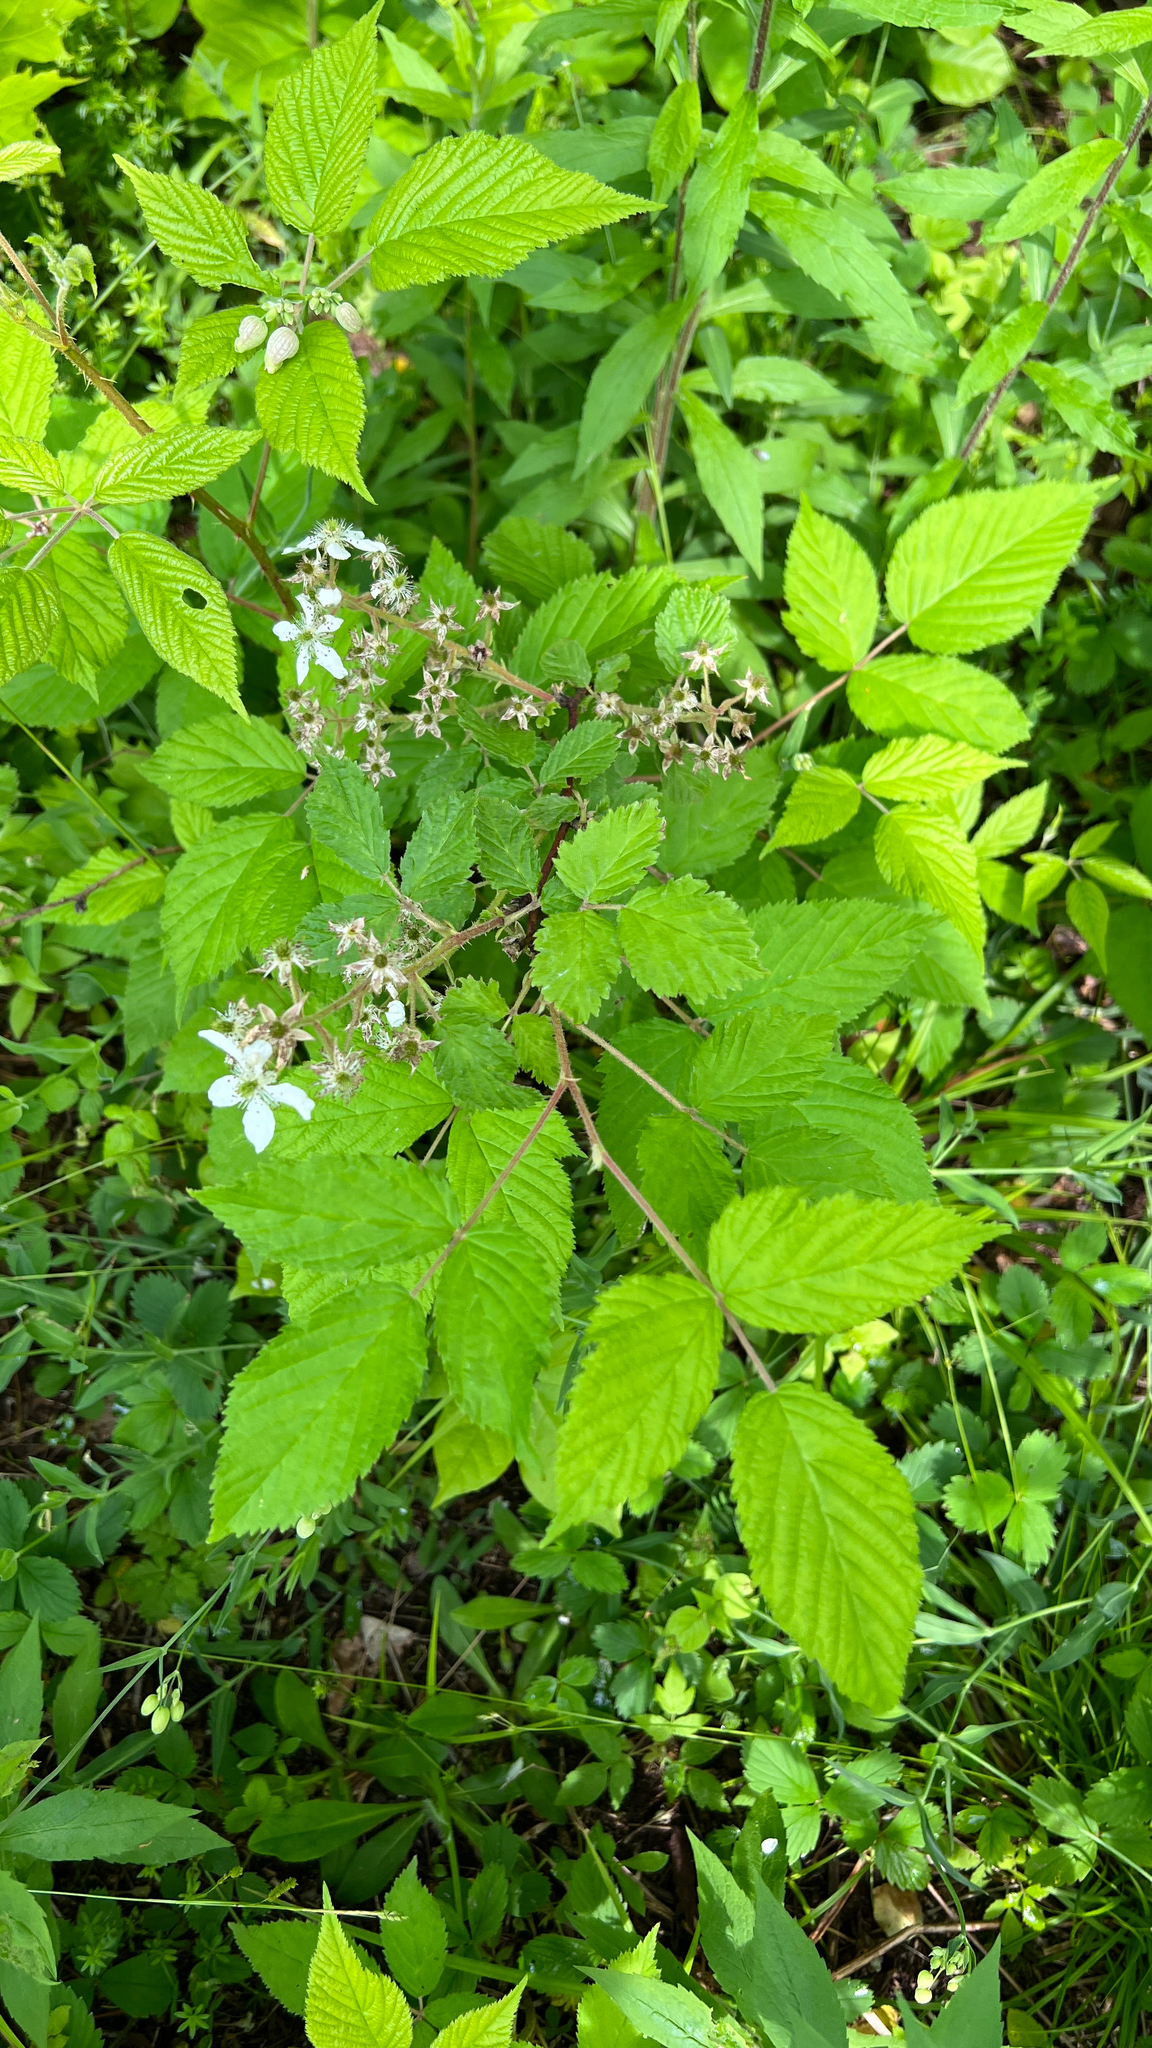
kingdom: Plantae
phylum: Tracheophyta
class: Magnoliopsida
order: Rosales
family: Rosaceae
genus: Rubus
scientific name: Rubus allegheniensis
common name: Allegheny blackberry
